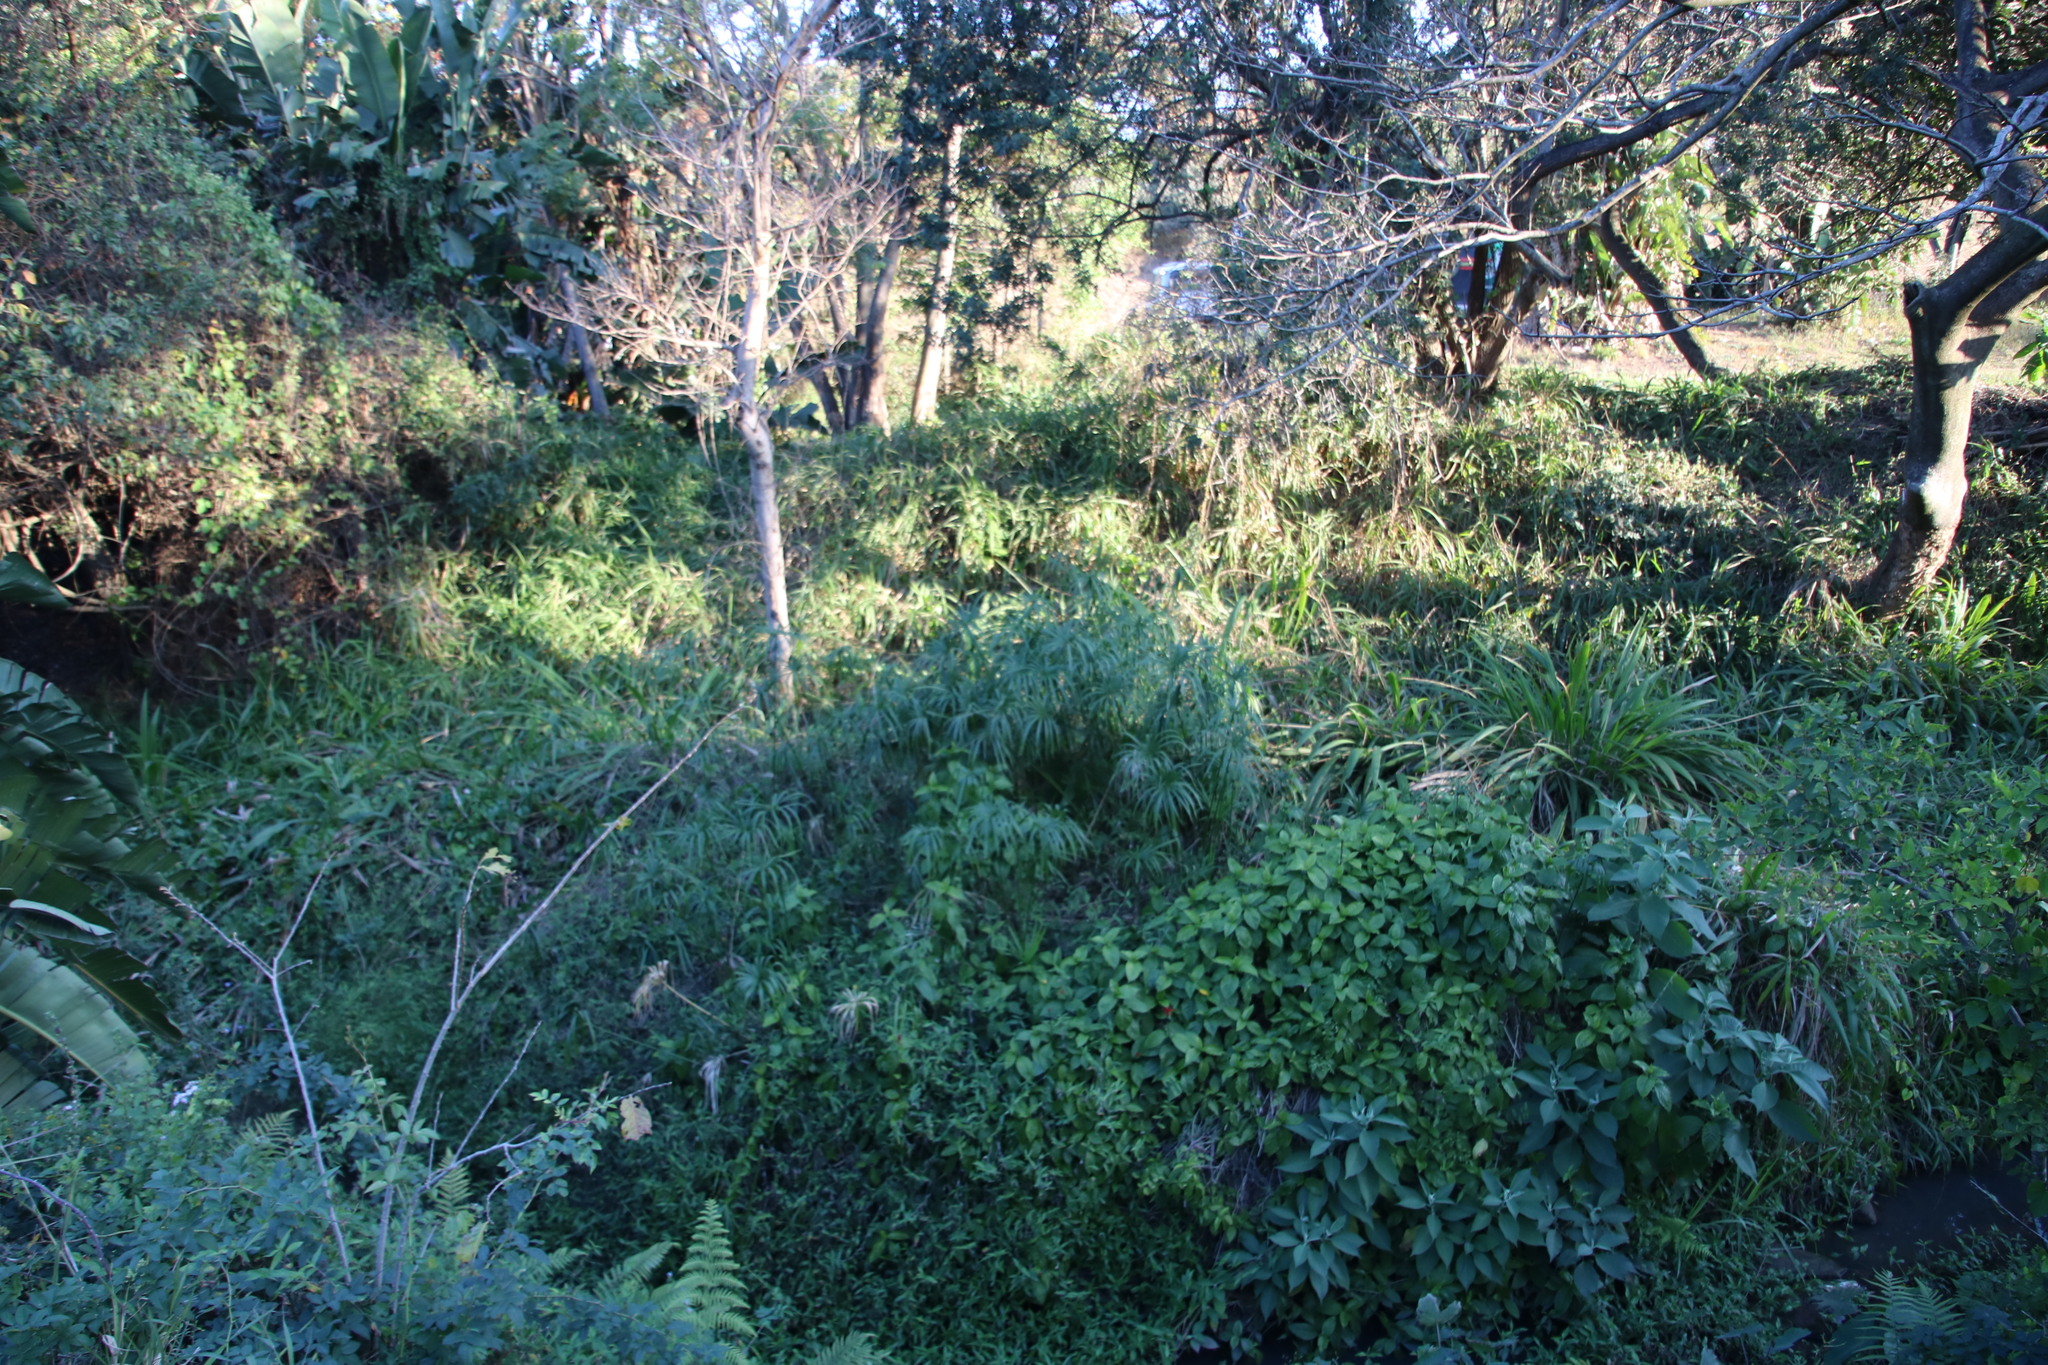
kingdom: Plantae
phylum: Tracheophyta
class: Liliopsida
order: Poales
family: Cyperaceae
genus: Cyperus
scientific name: Cyperus textilis
